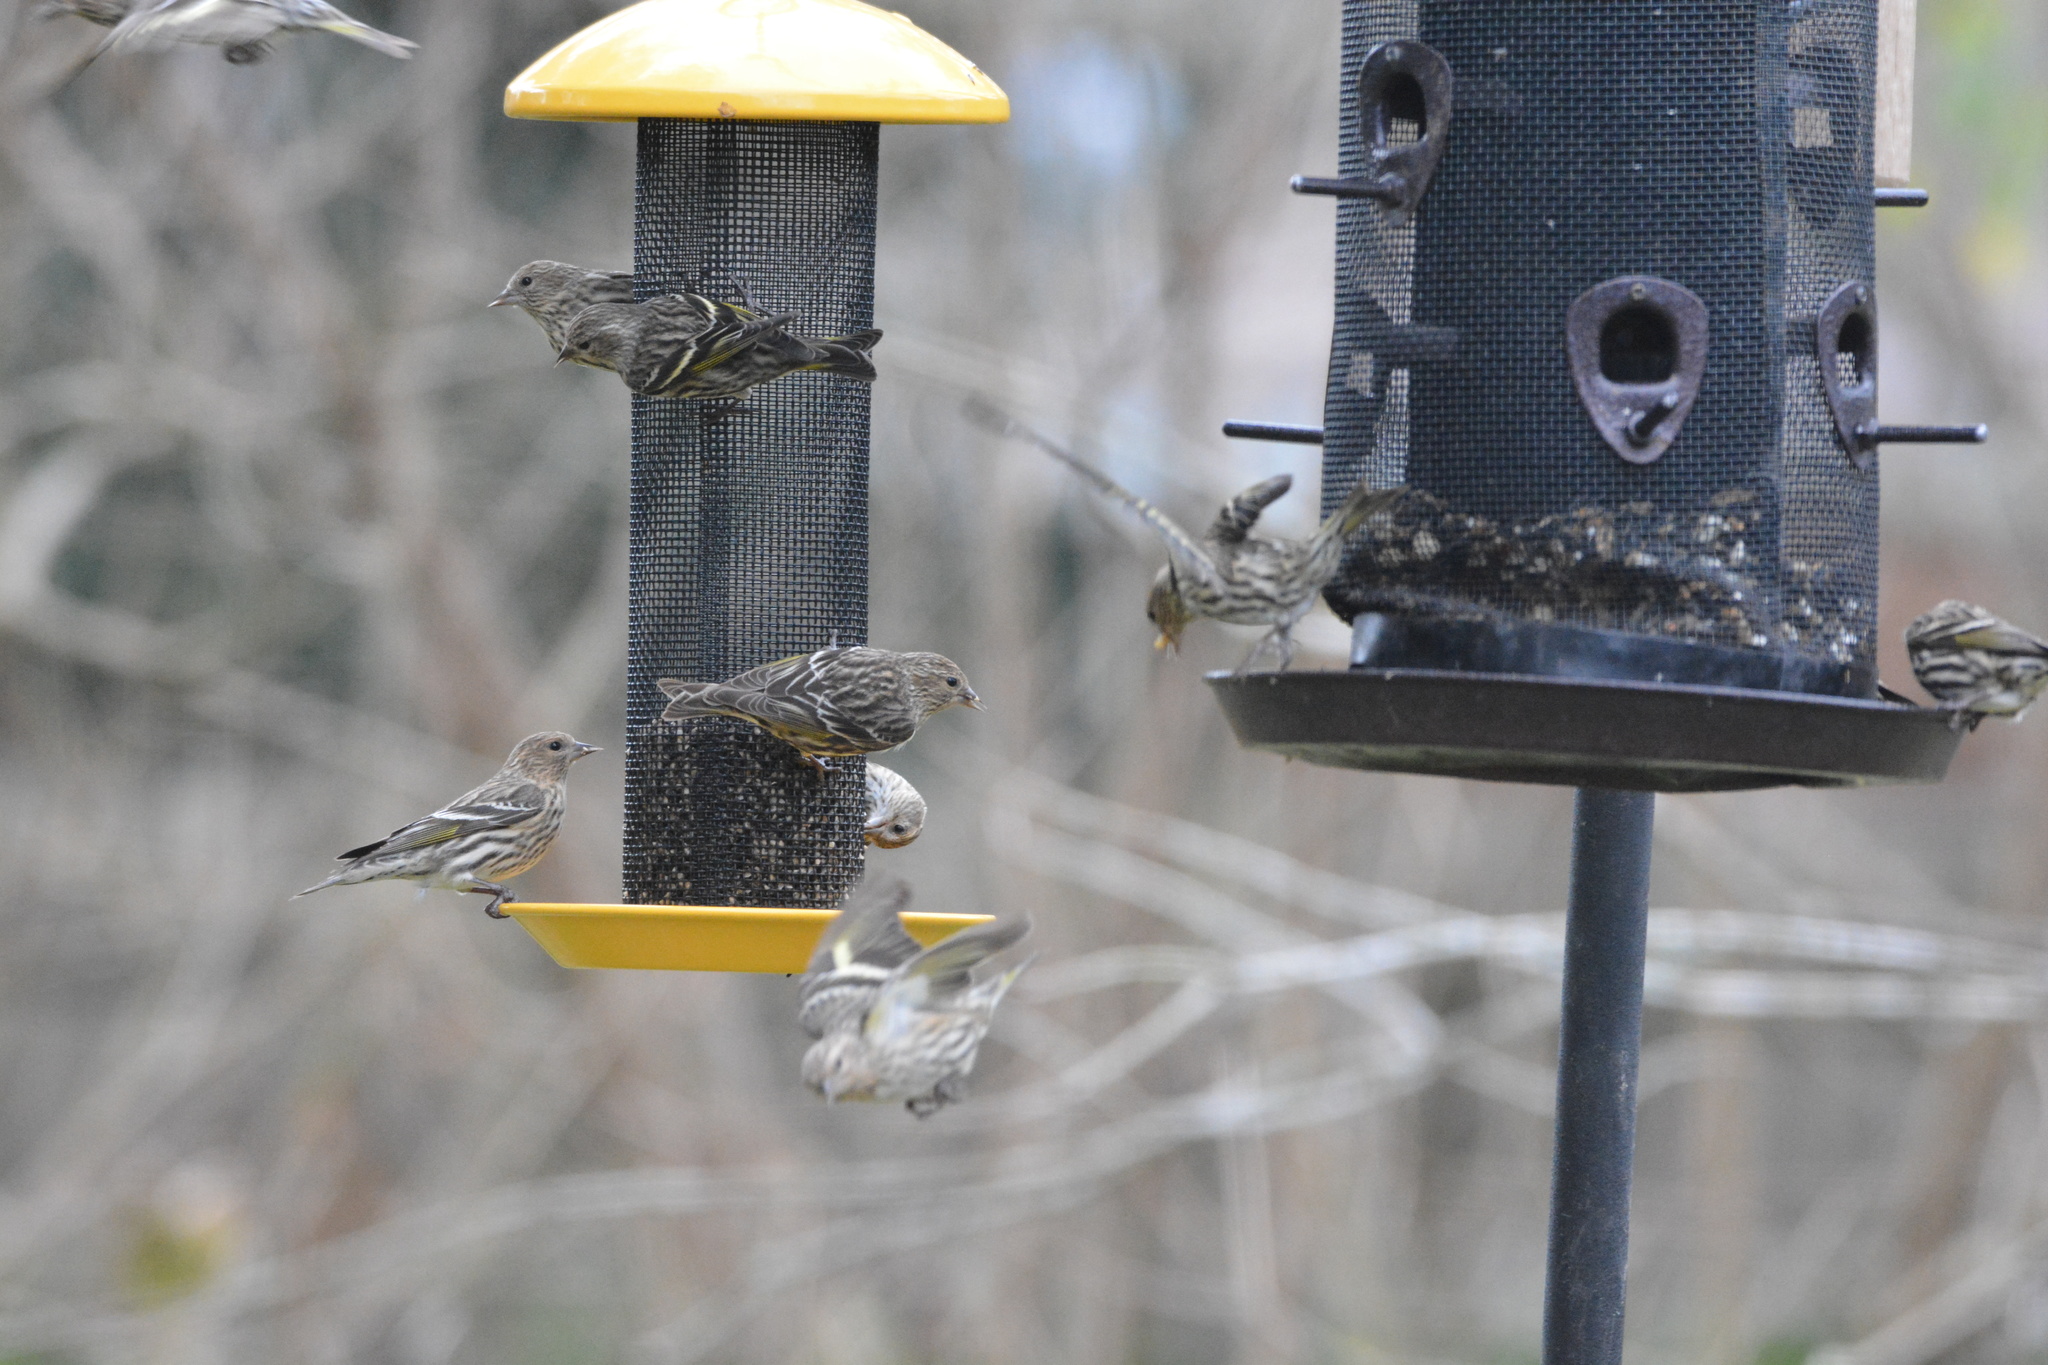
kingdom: Animalia
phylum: Chordata
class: Aves
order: Passeriformes
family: Fringillidae
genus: Spinus
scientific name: Spinus pinus
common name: Pine siskin
